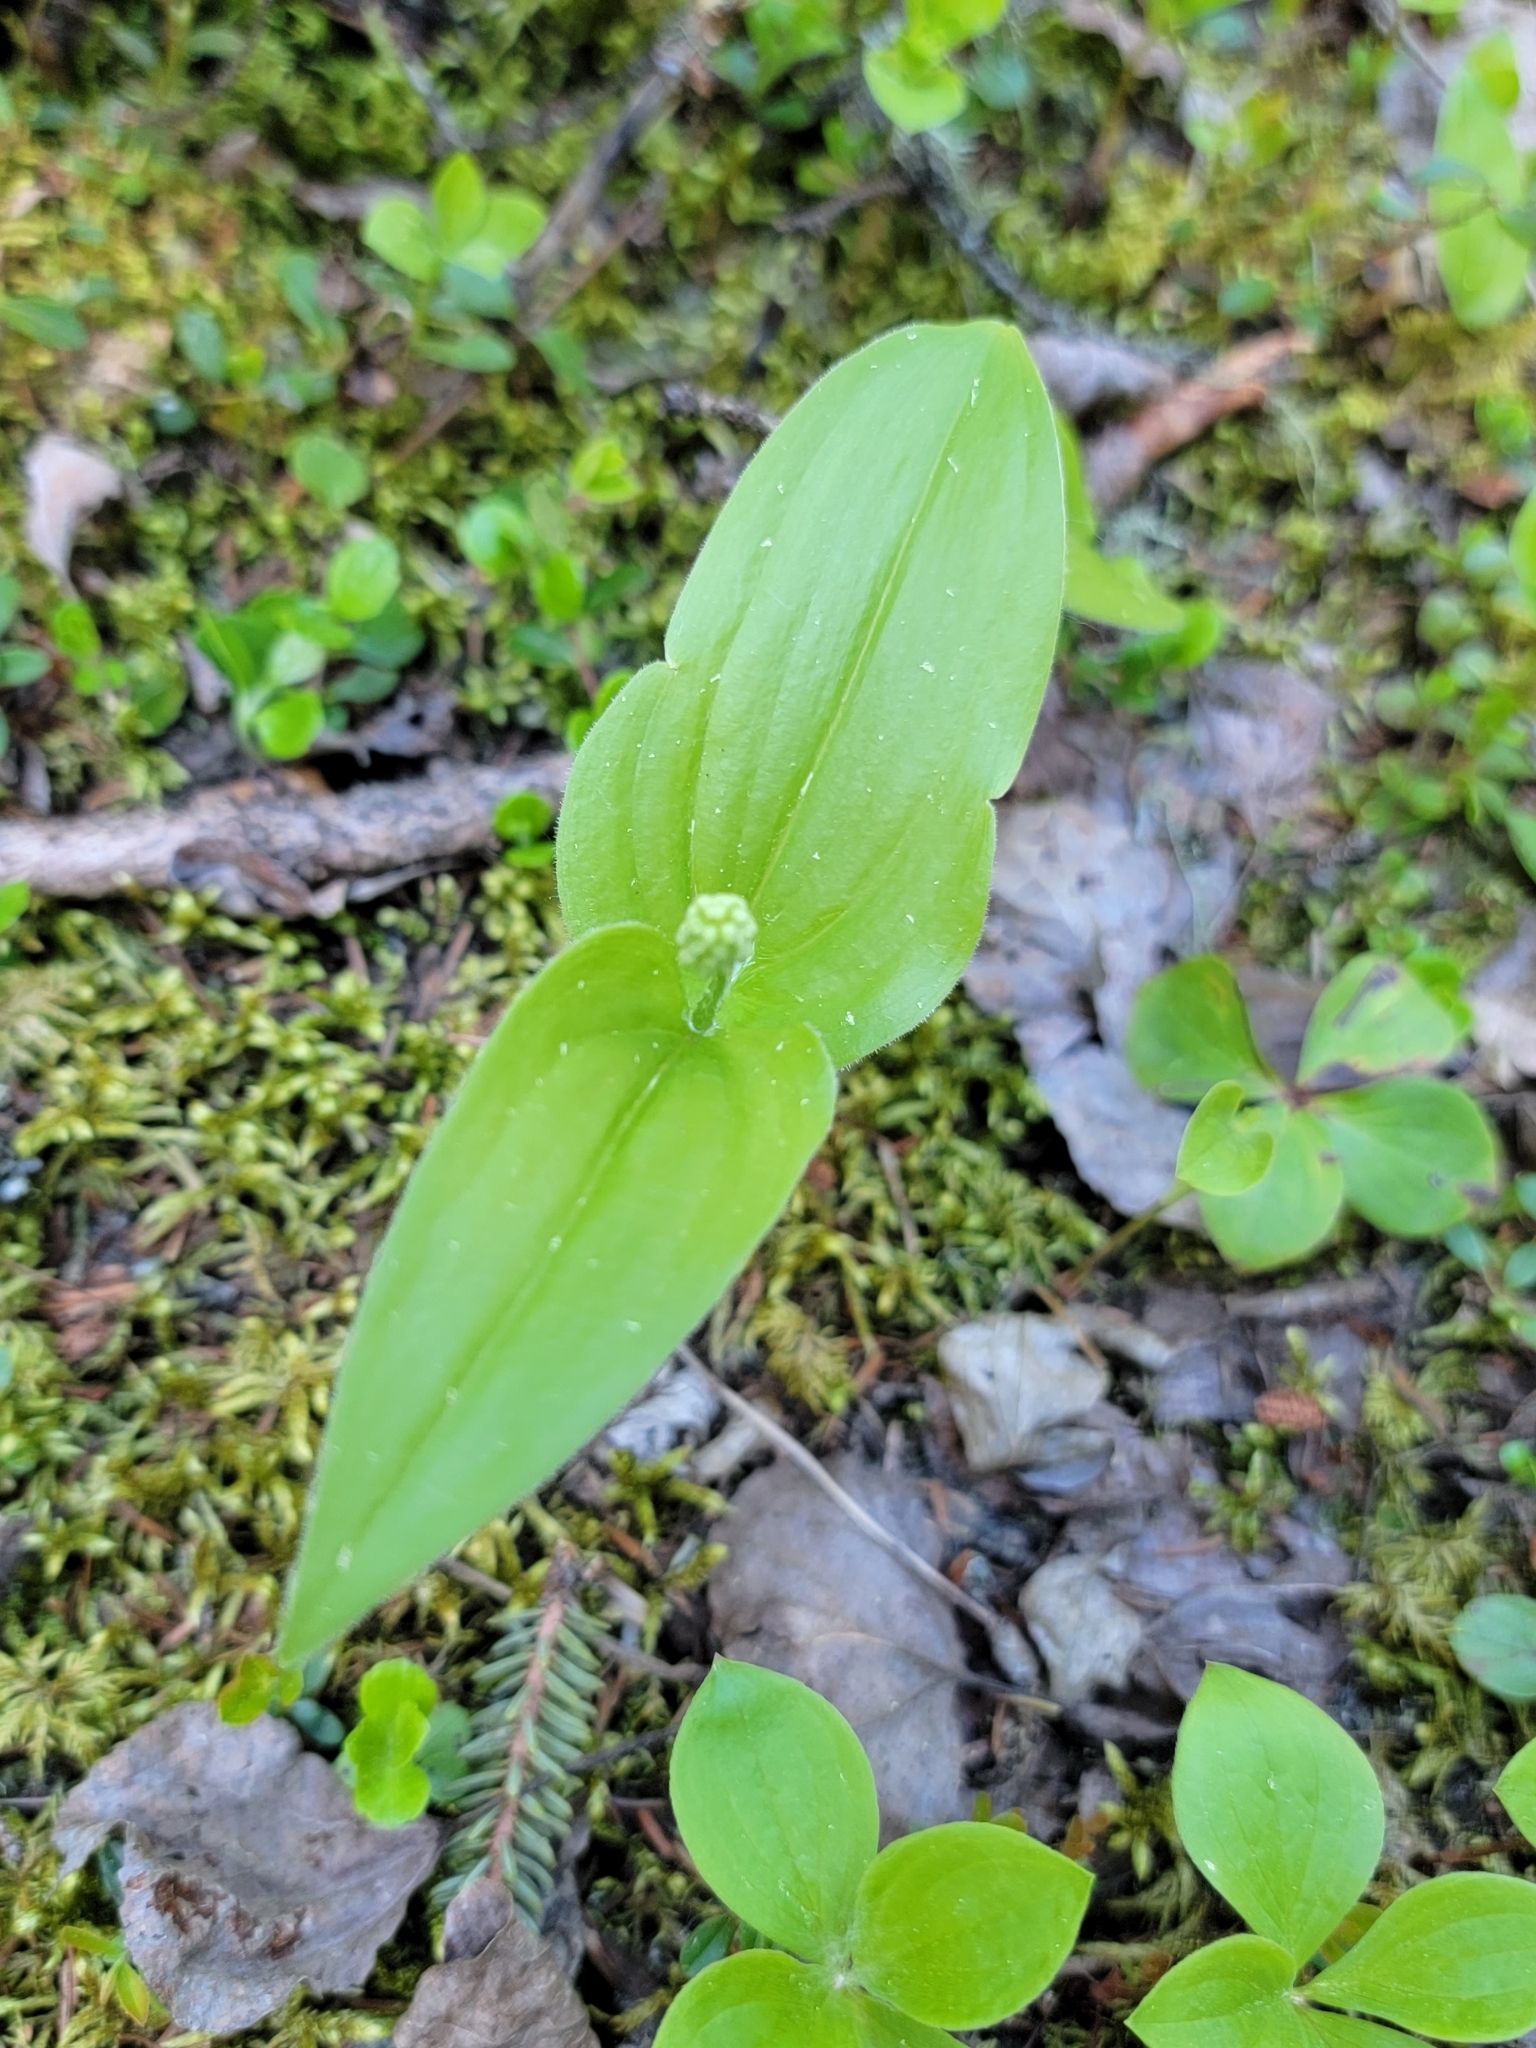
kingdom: Plantae
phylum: Tracheophyta
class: Liliopsida
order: Asparagales
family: Asparagaceae
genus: Maianthemum
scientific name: Maianthemum canadense
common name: False lily-of-the-valley
